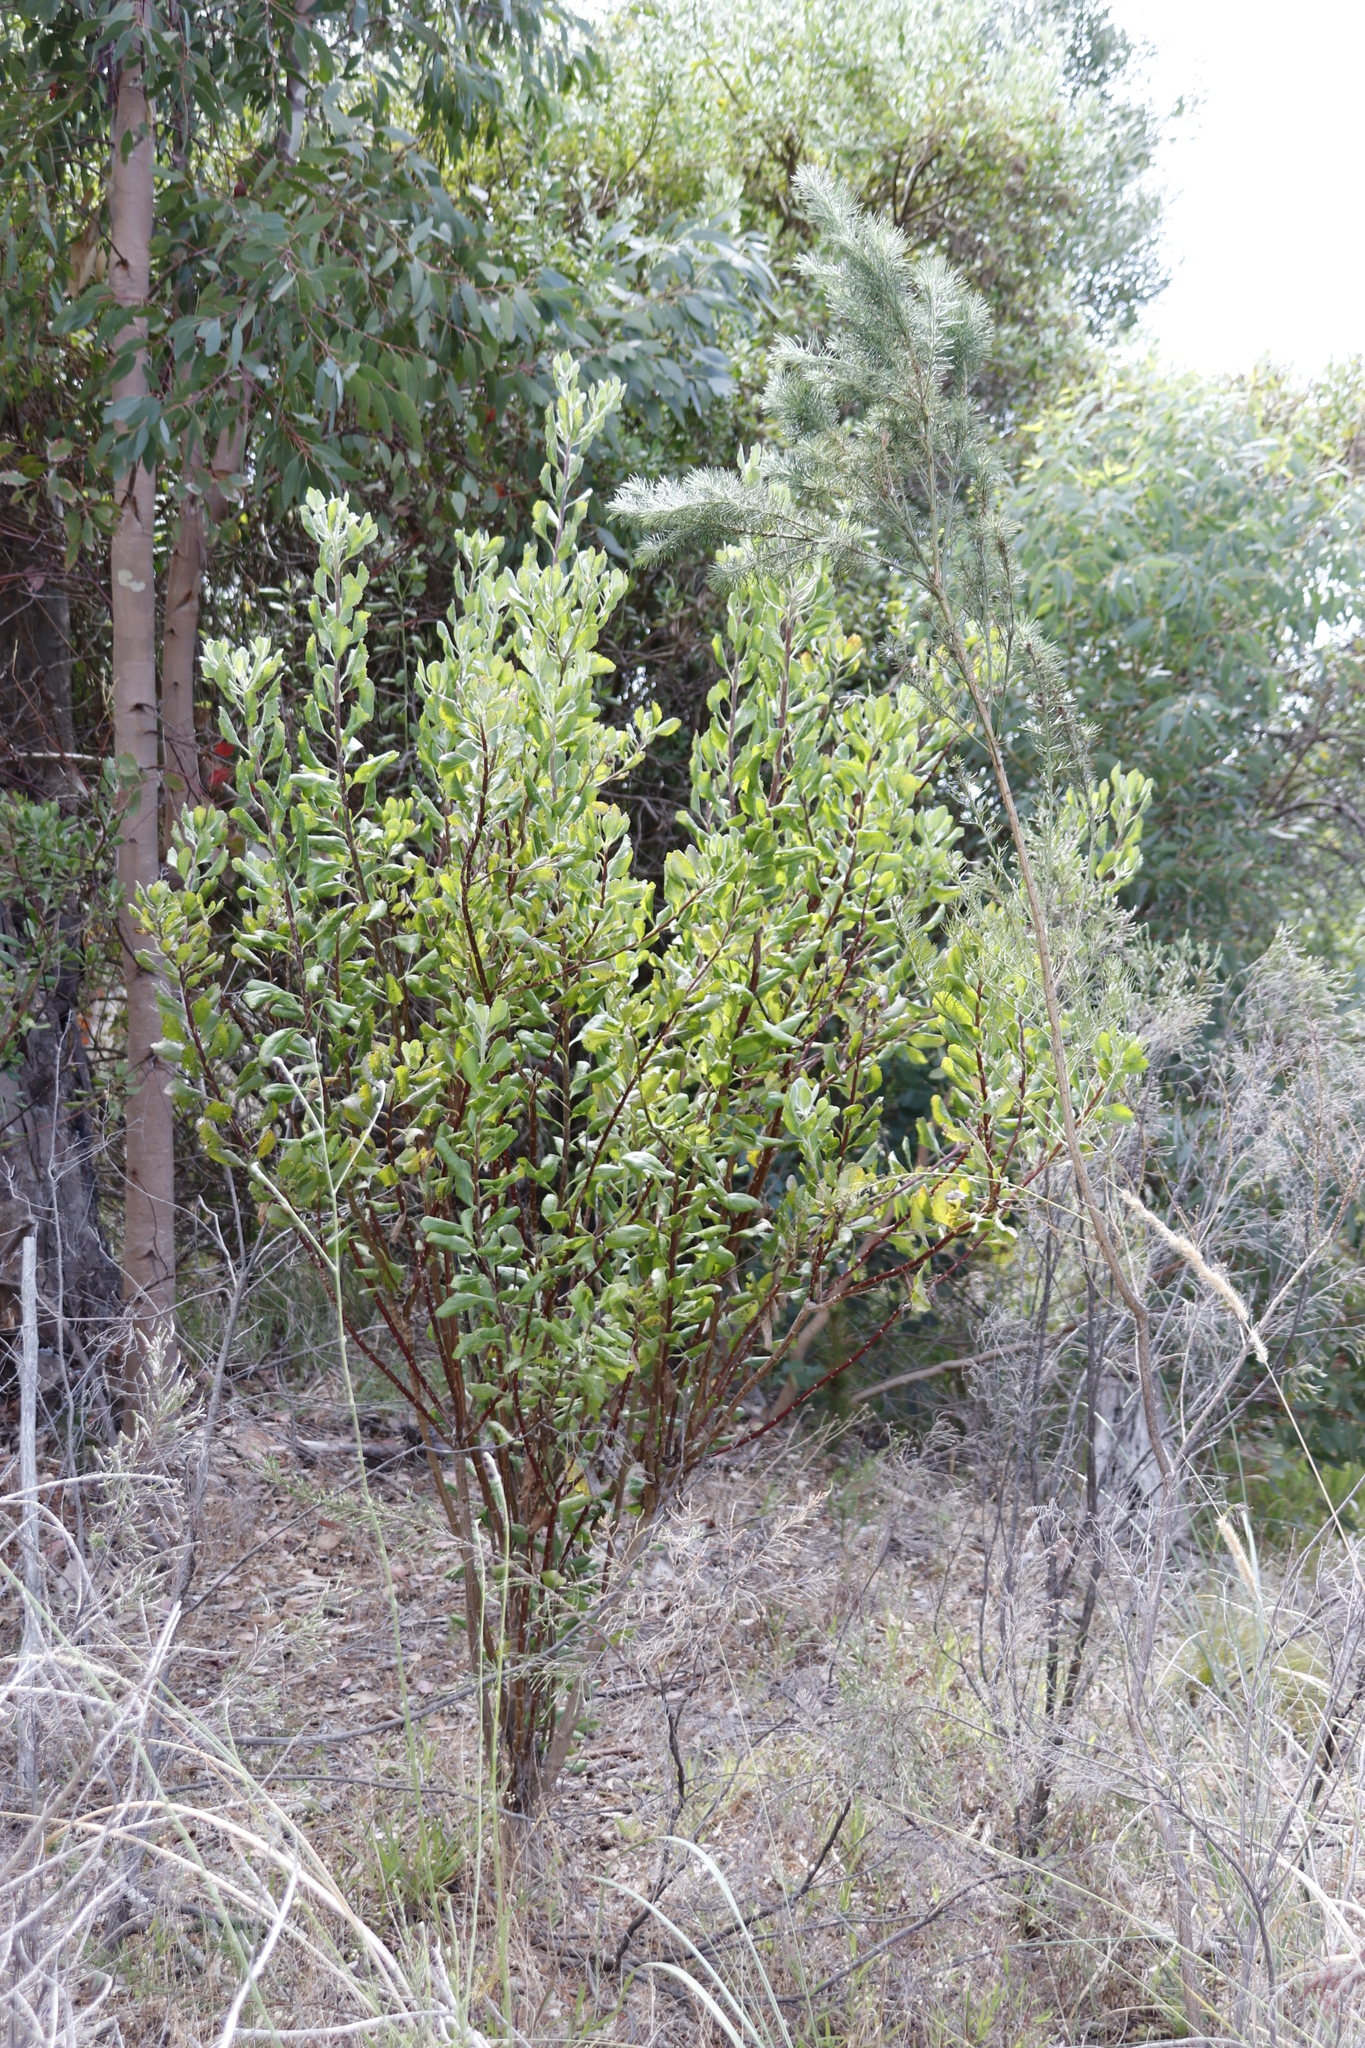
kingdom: Plantae
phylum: Tracheophyta
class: Magnoliopsida
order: Asterales
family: Asteraceae
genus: Osteospermum
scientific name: Osteospermum moniliferum
